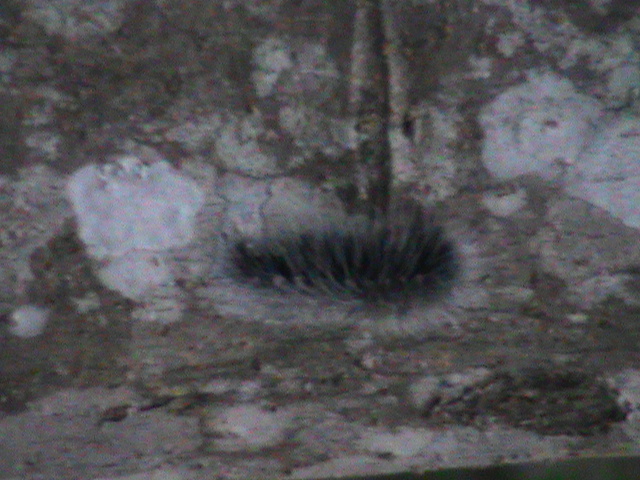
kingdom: Animalia
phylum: Arthropoda
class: Insecta
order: Lepidoptera
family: Erebidae
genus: Macrobrochis
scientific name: Macrobrochis gigas
